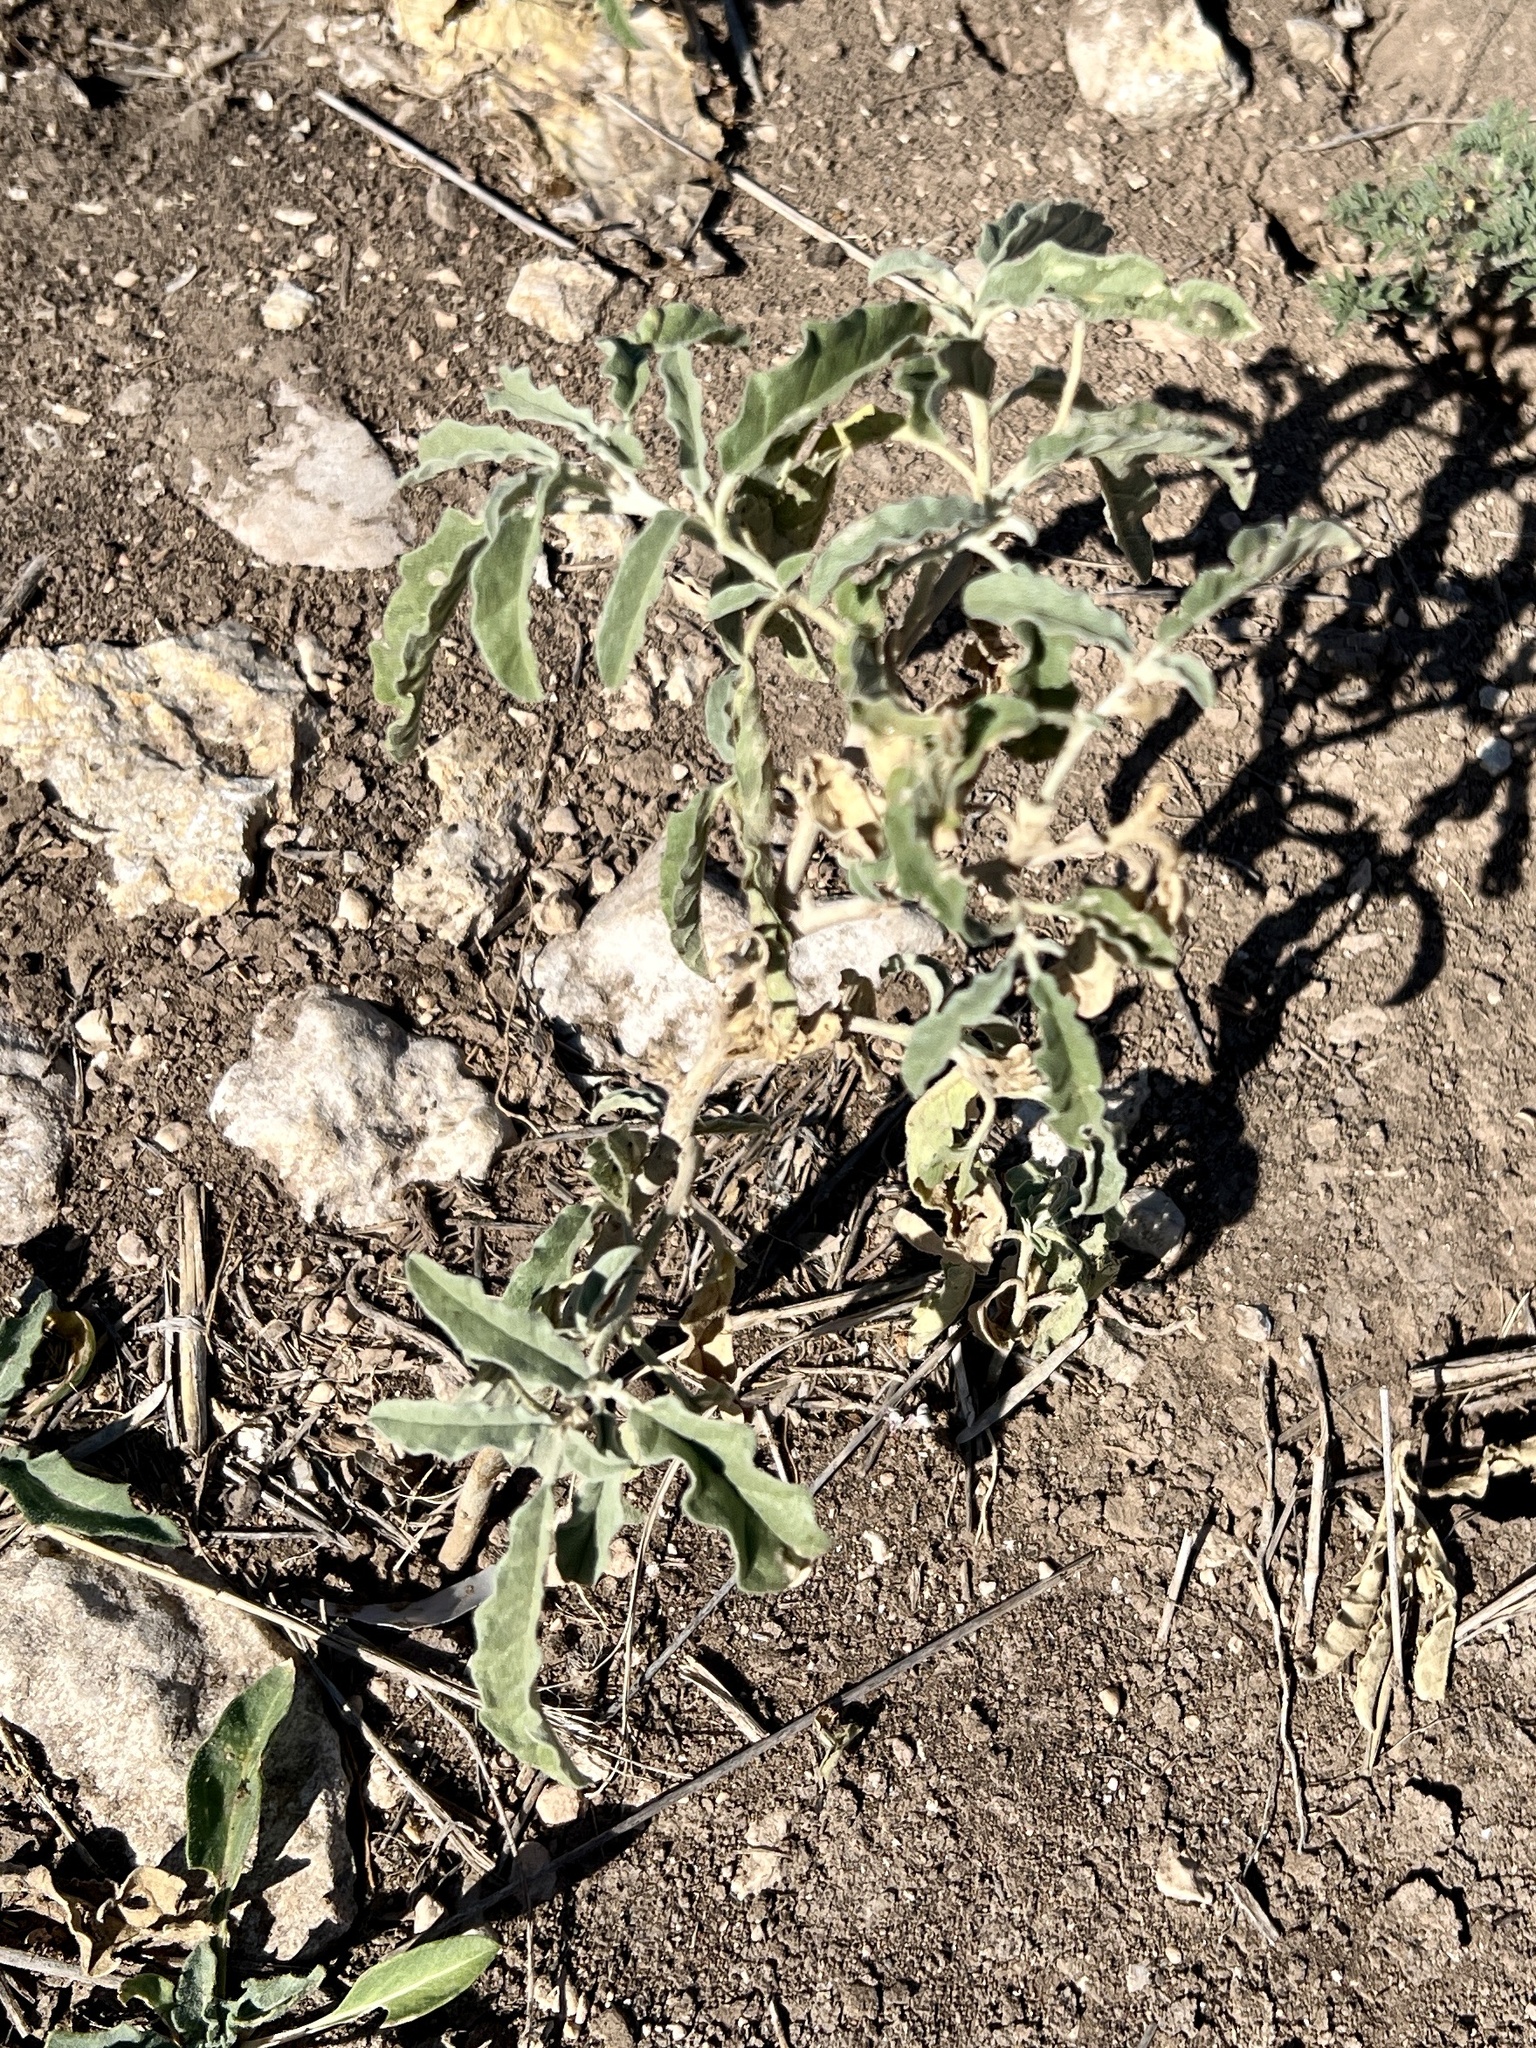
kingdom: Plantae
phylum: Tracheophyta
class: Magnoliopsida
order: Solanales
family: Solanaceae
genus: Solanum
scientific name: Solanum elaeagnifolium
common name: Silverleaf nightshade
